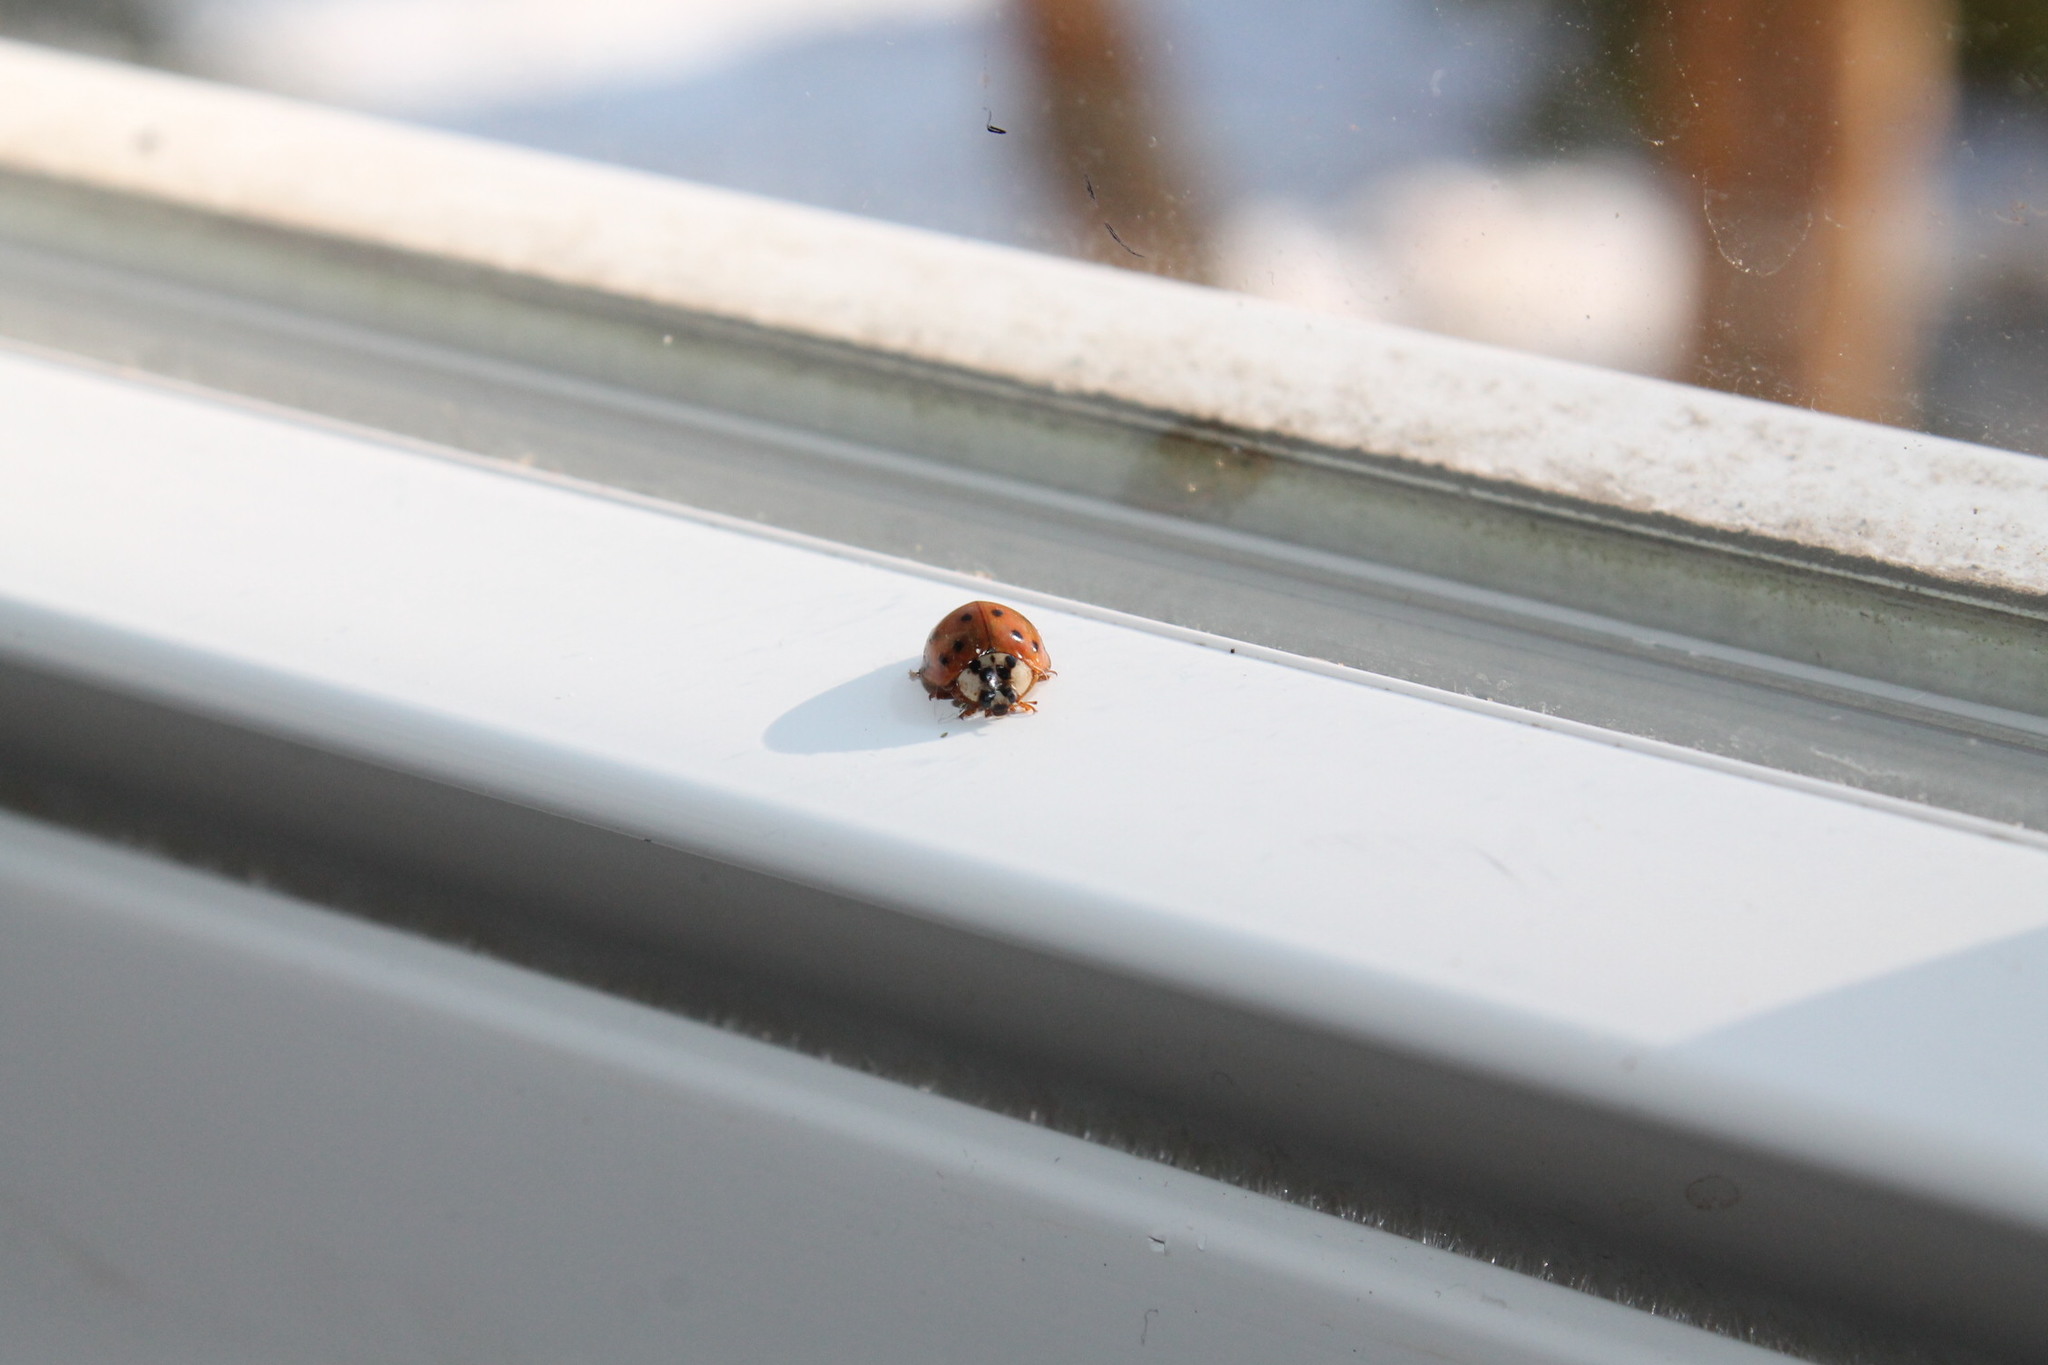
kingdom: Animalia
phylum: Arthropoda
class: Insecta
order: Coleoptera
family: Coccinellidae
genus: Harmonia
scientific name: Harmonia axyridis
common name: Harlequin ladybird
